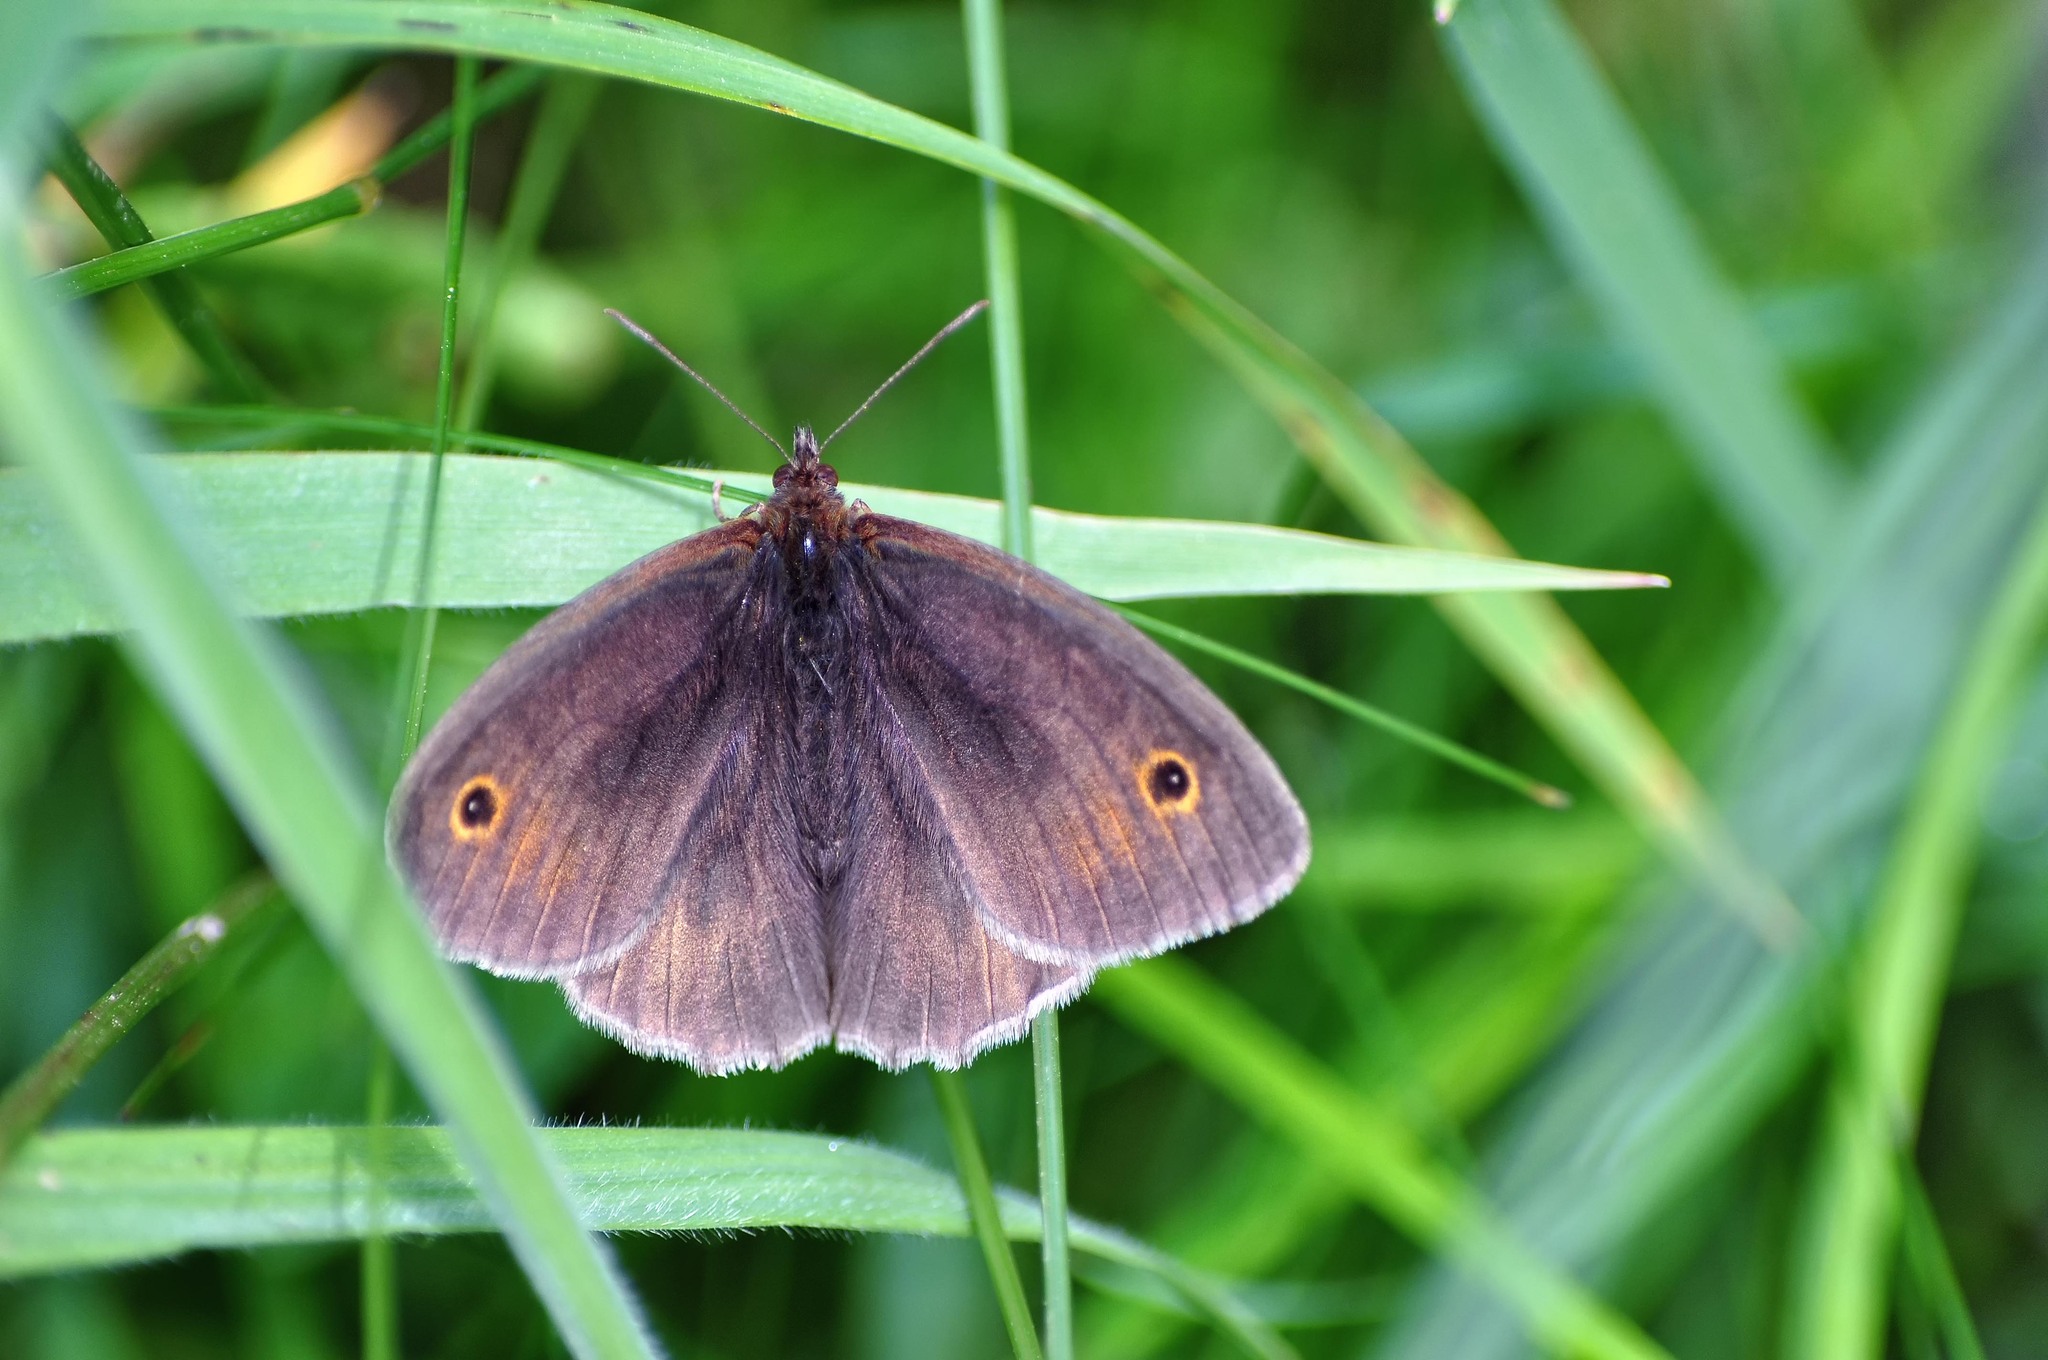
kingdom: Animalia
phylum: Arthropoda
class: Insecta
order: Lepidoptera
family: Nymphalidae
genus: Maniola
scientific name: Maniola jurtina
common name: Meadow brown
